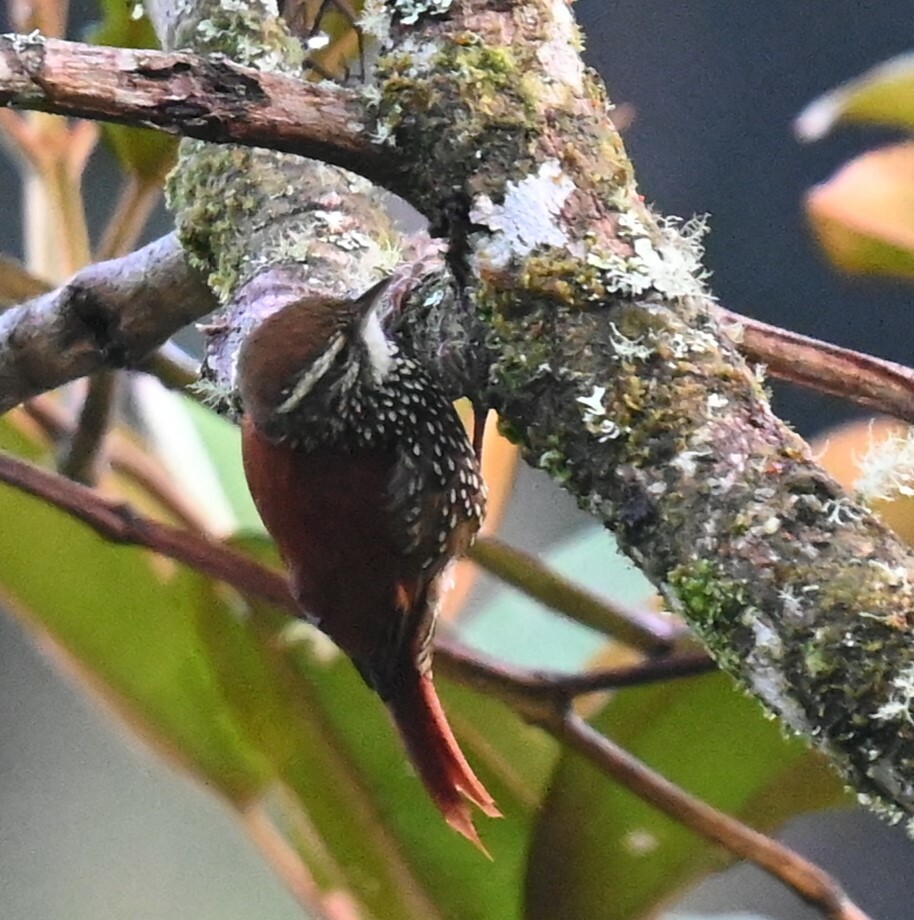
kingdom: Animalia
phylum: Chordata
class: Aves
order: Passeriformes
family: Furnariidae
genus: Margarornis
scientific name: Margarornis squamiger
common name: Pearled treerunner
